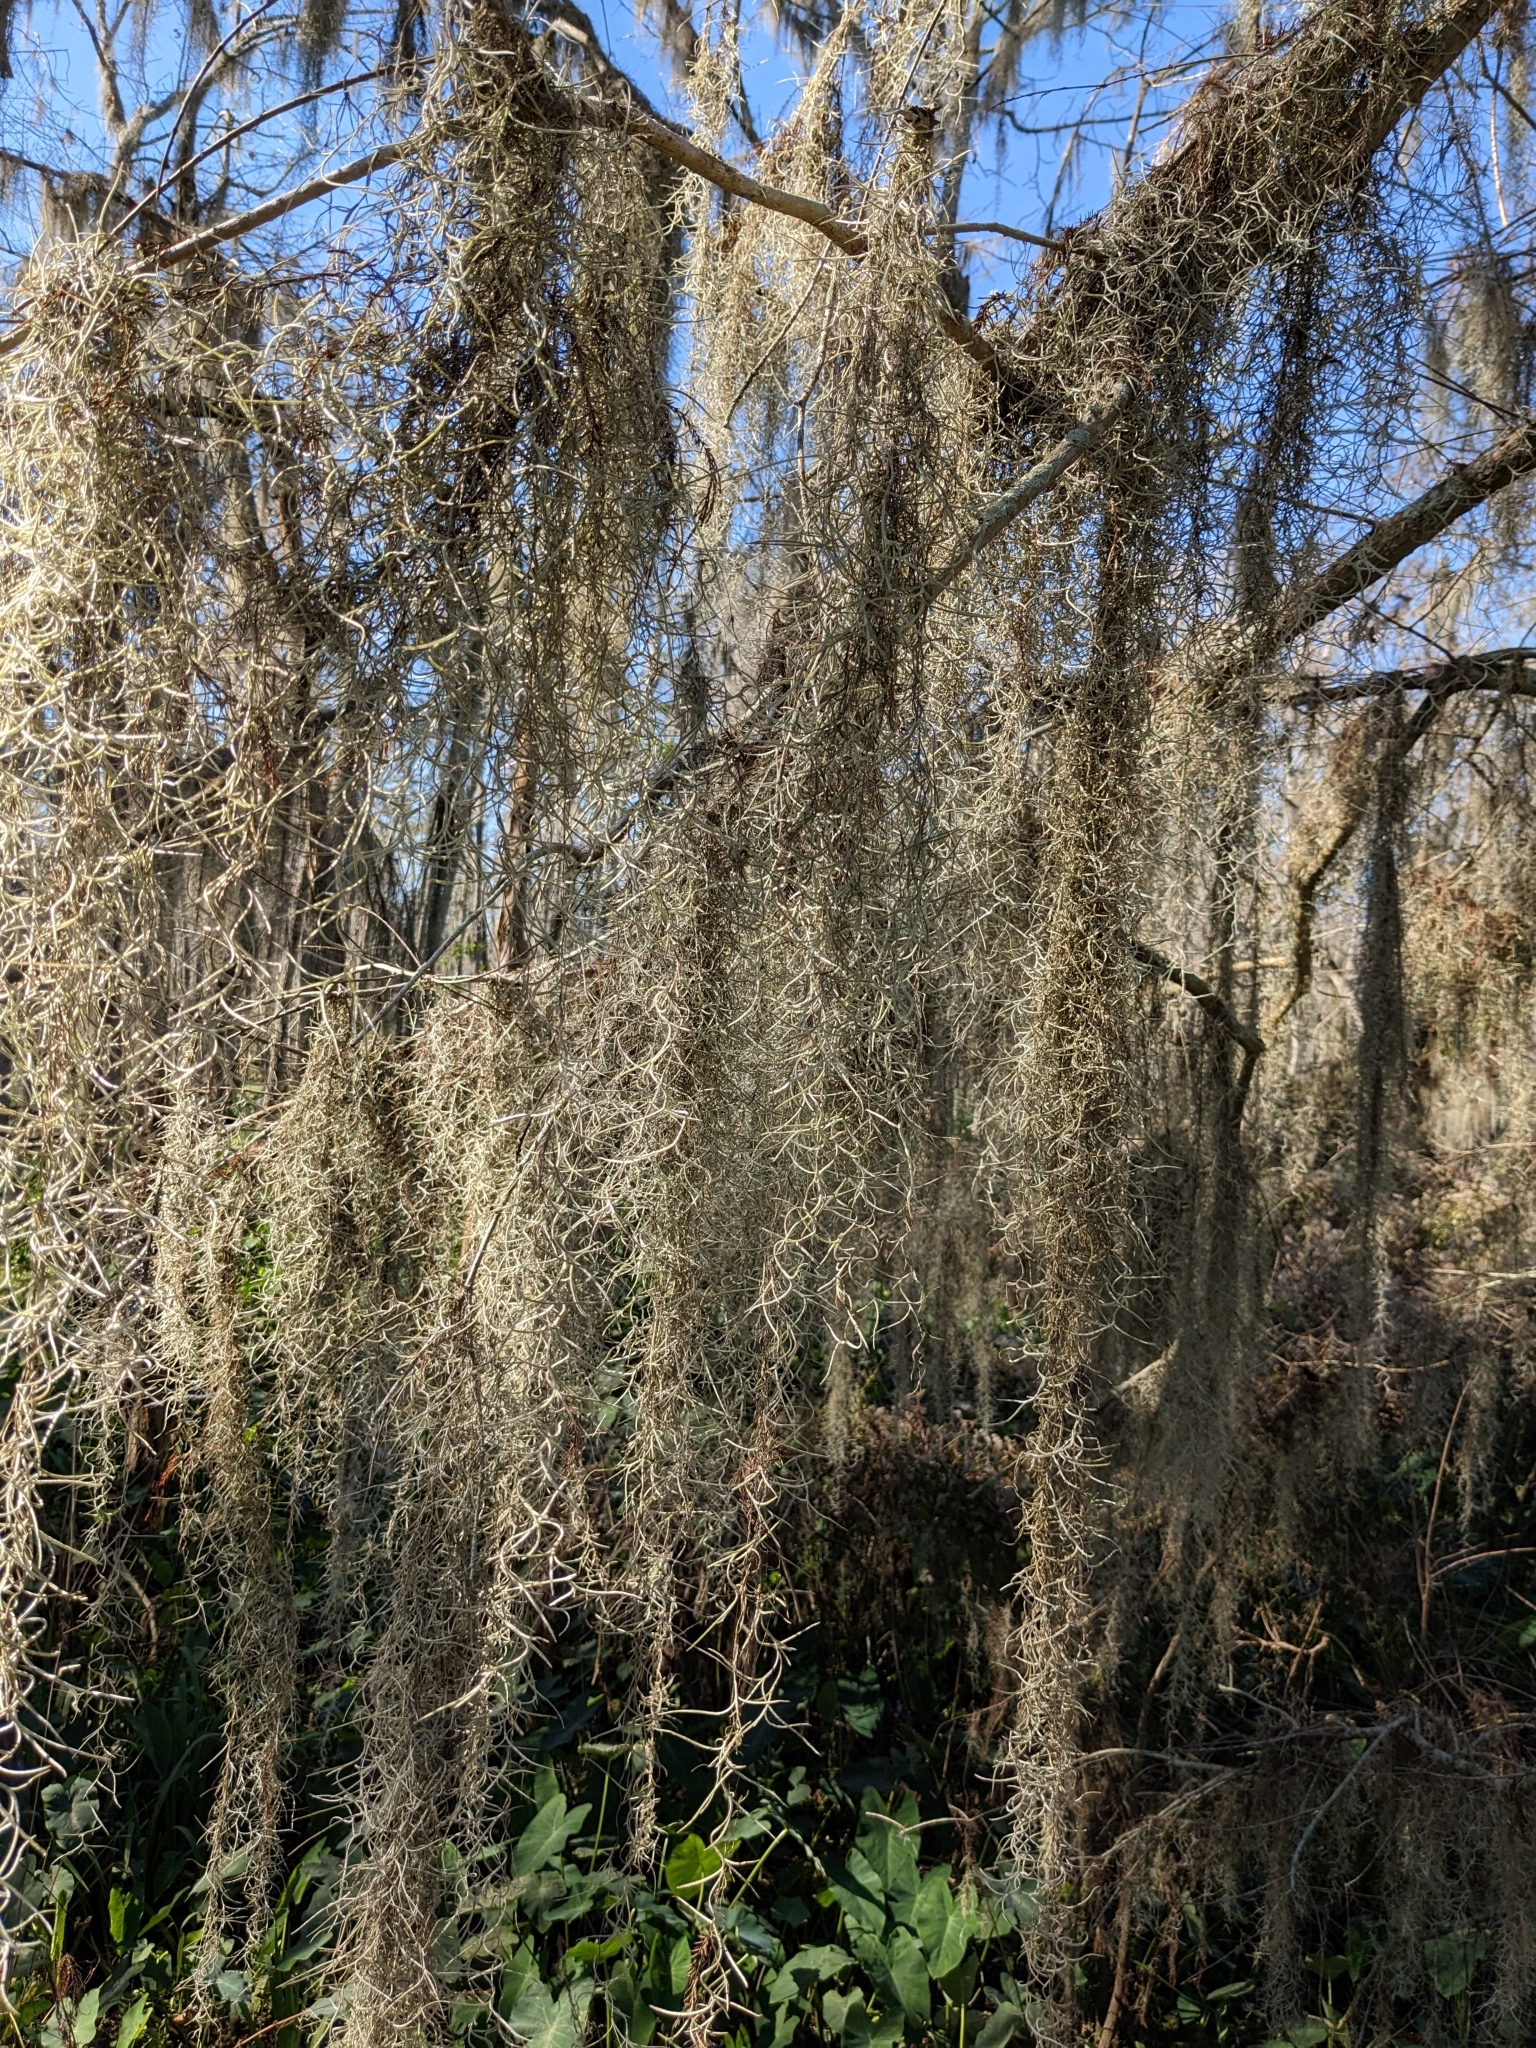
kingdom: Plantae
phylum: Tracheophyta
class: Liliopsida
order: Poales
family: Bromeliaceae
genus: Tillandsia
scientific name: Tillandsia usneoides
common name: Spanish moss
